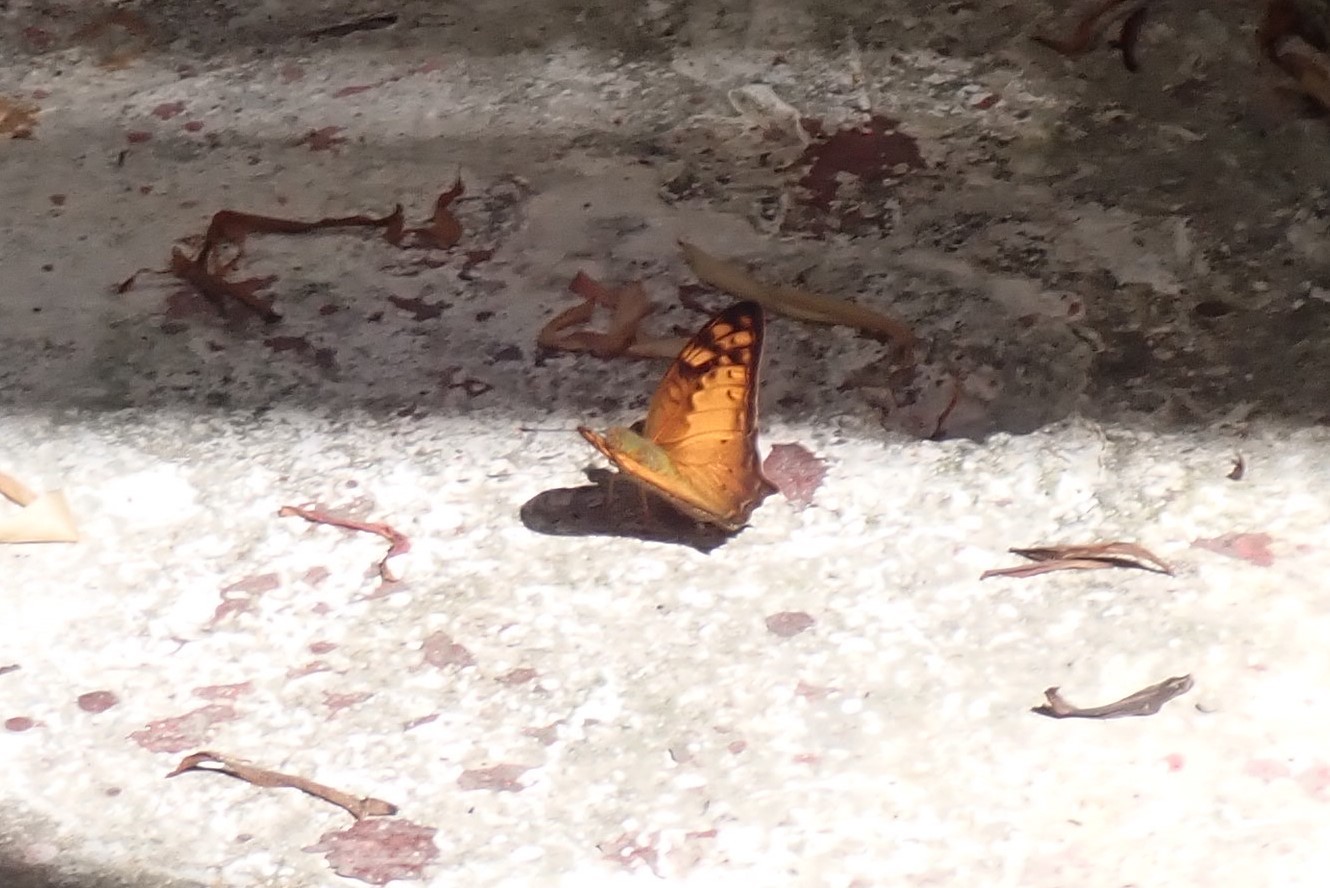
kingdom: Animalia
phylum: Arthropoda
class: Insecta
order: Lepidoptera
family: Nymphalidae
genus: Vagrans
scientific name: Vagrans sinha
